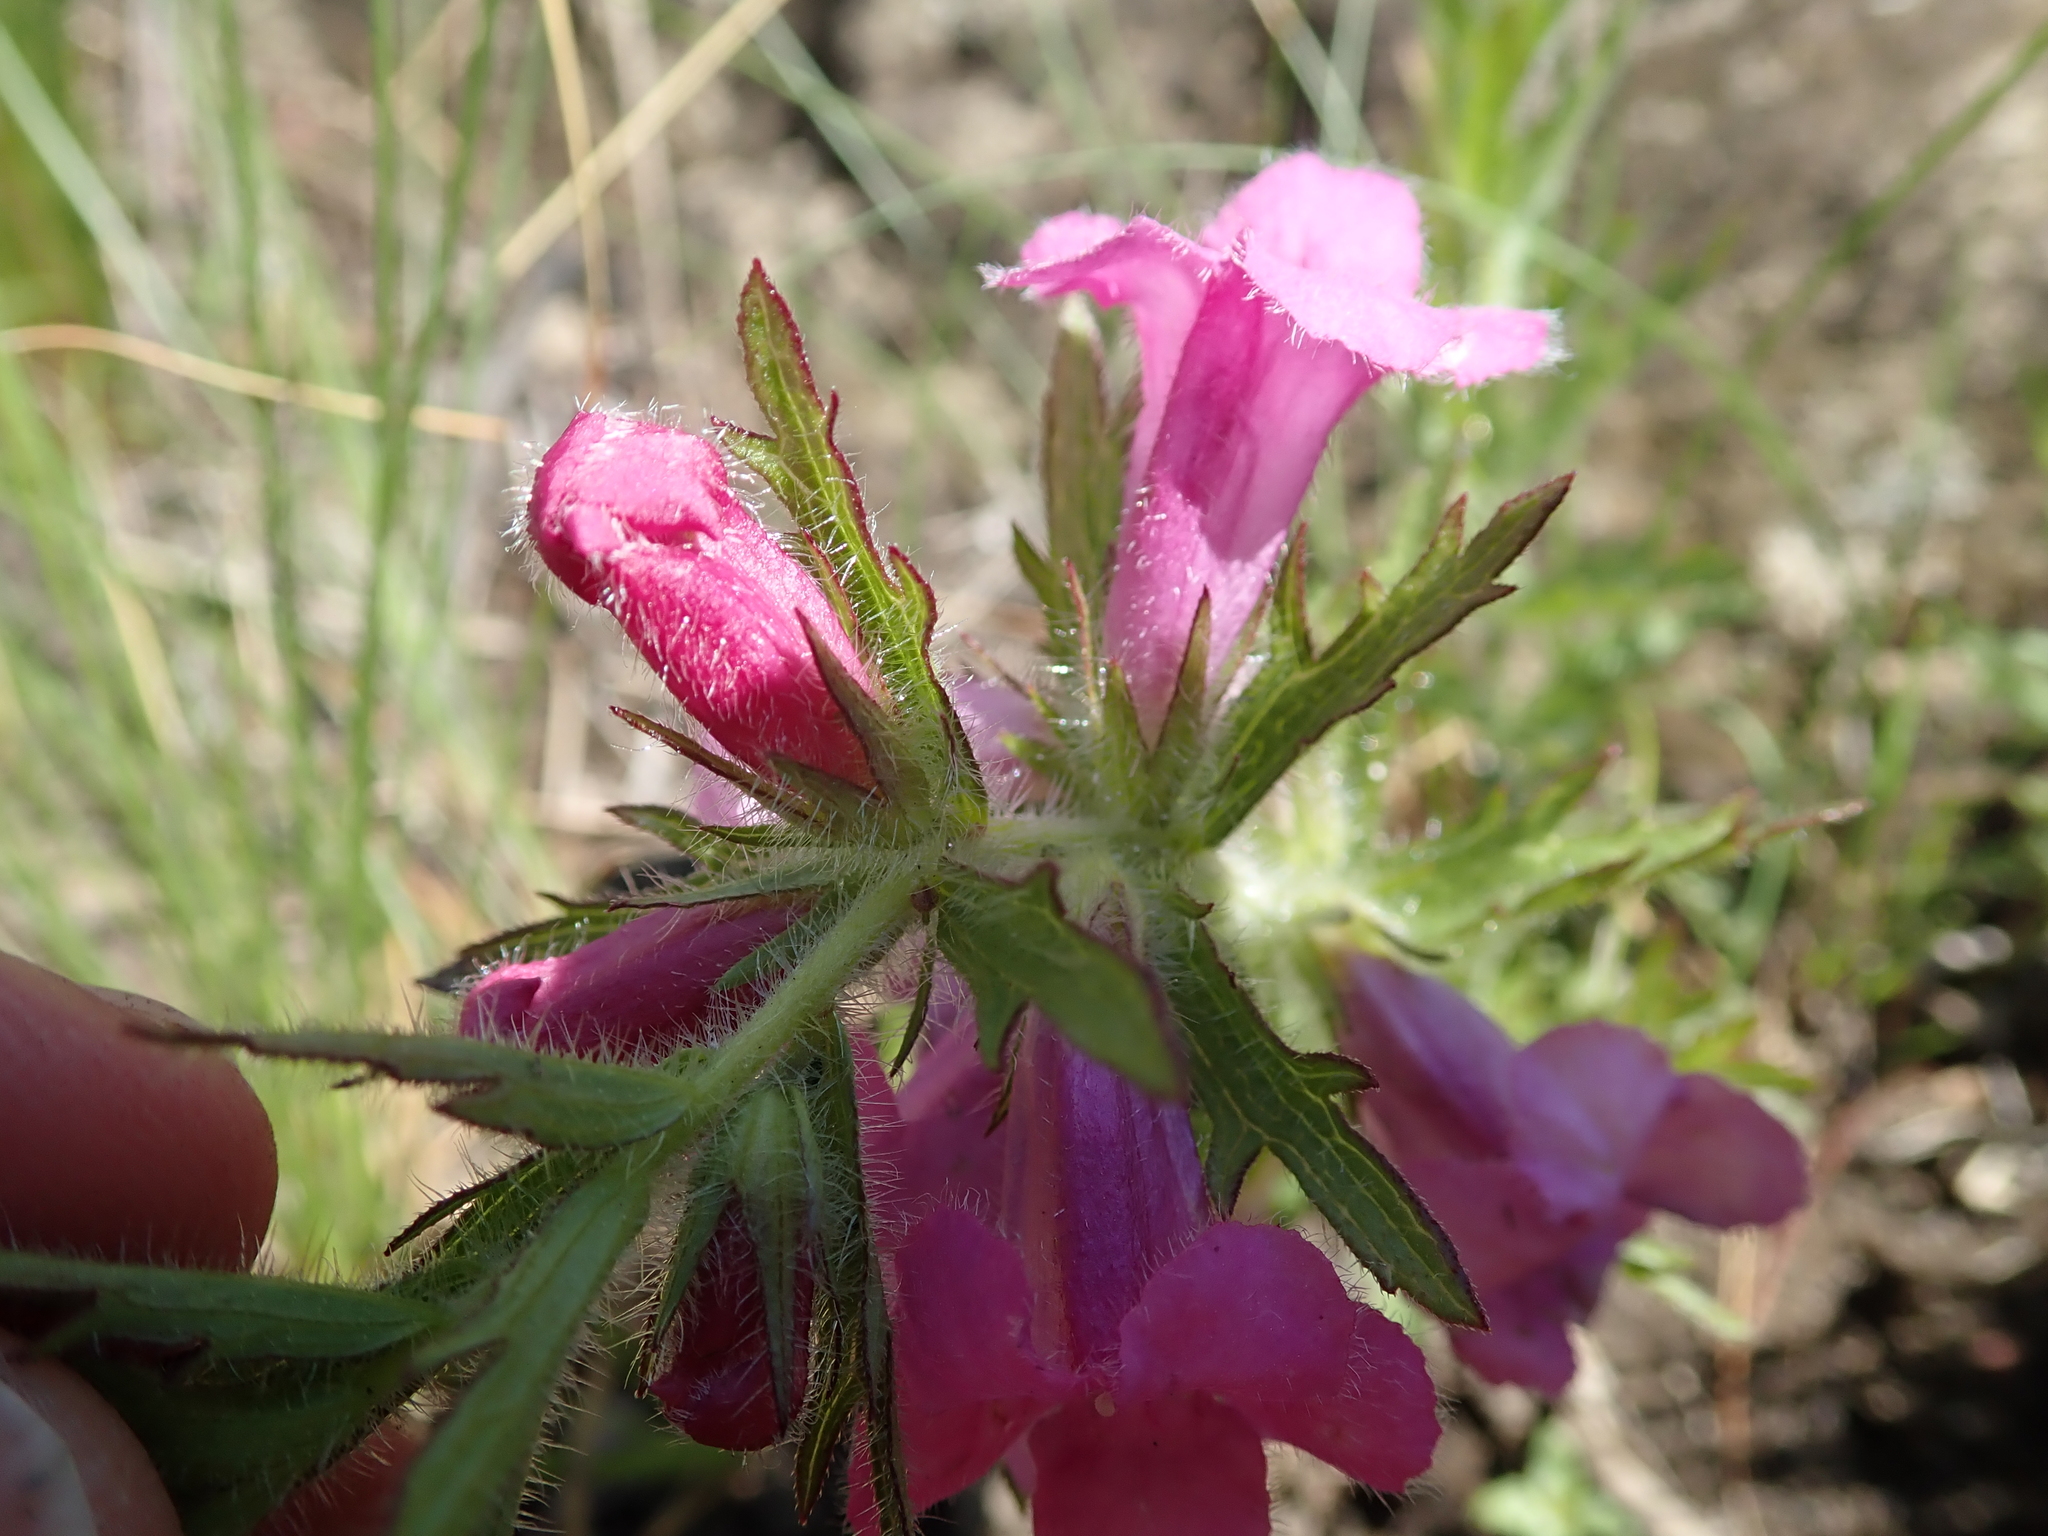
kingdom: Plantae
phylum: Tracheophyta
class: Magnoliopsida
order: Lamiales
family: Orobanchaceae
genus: Graderia
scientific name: Graderia scabra
